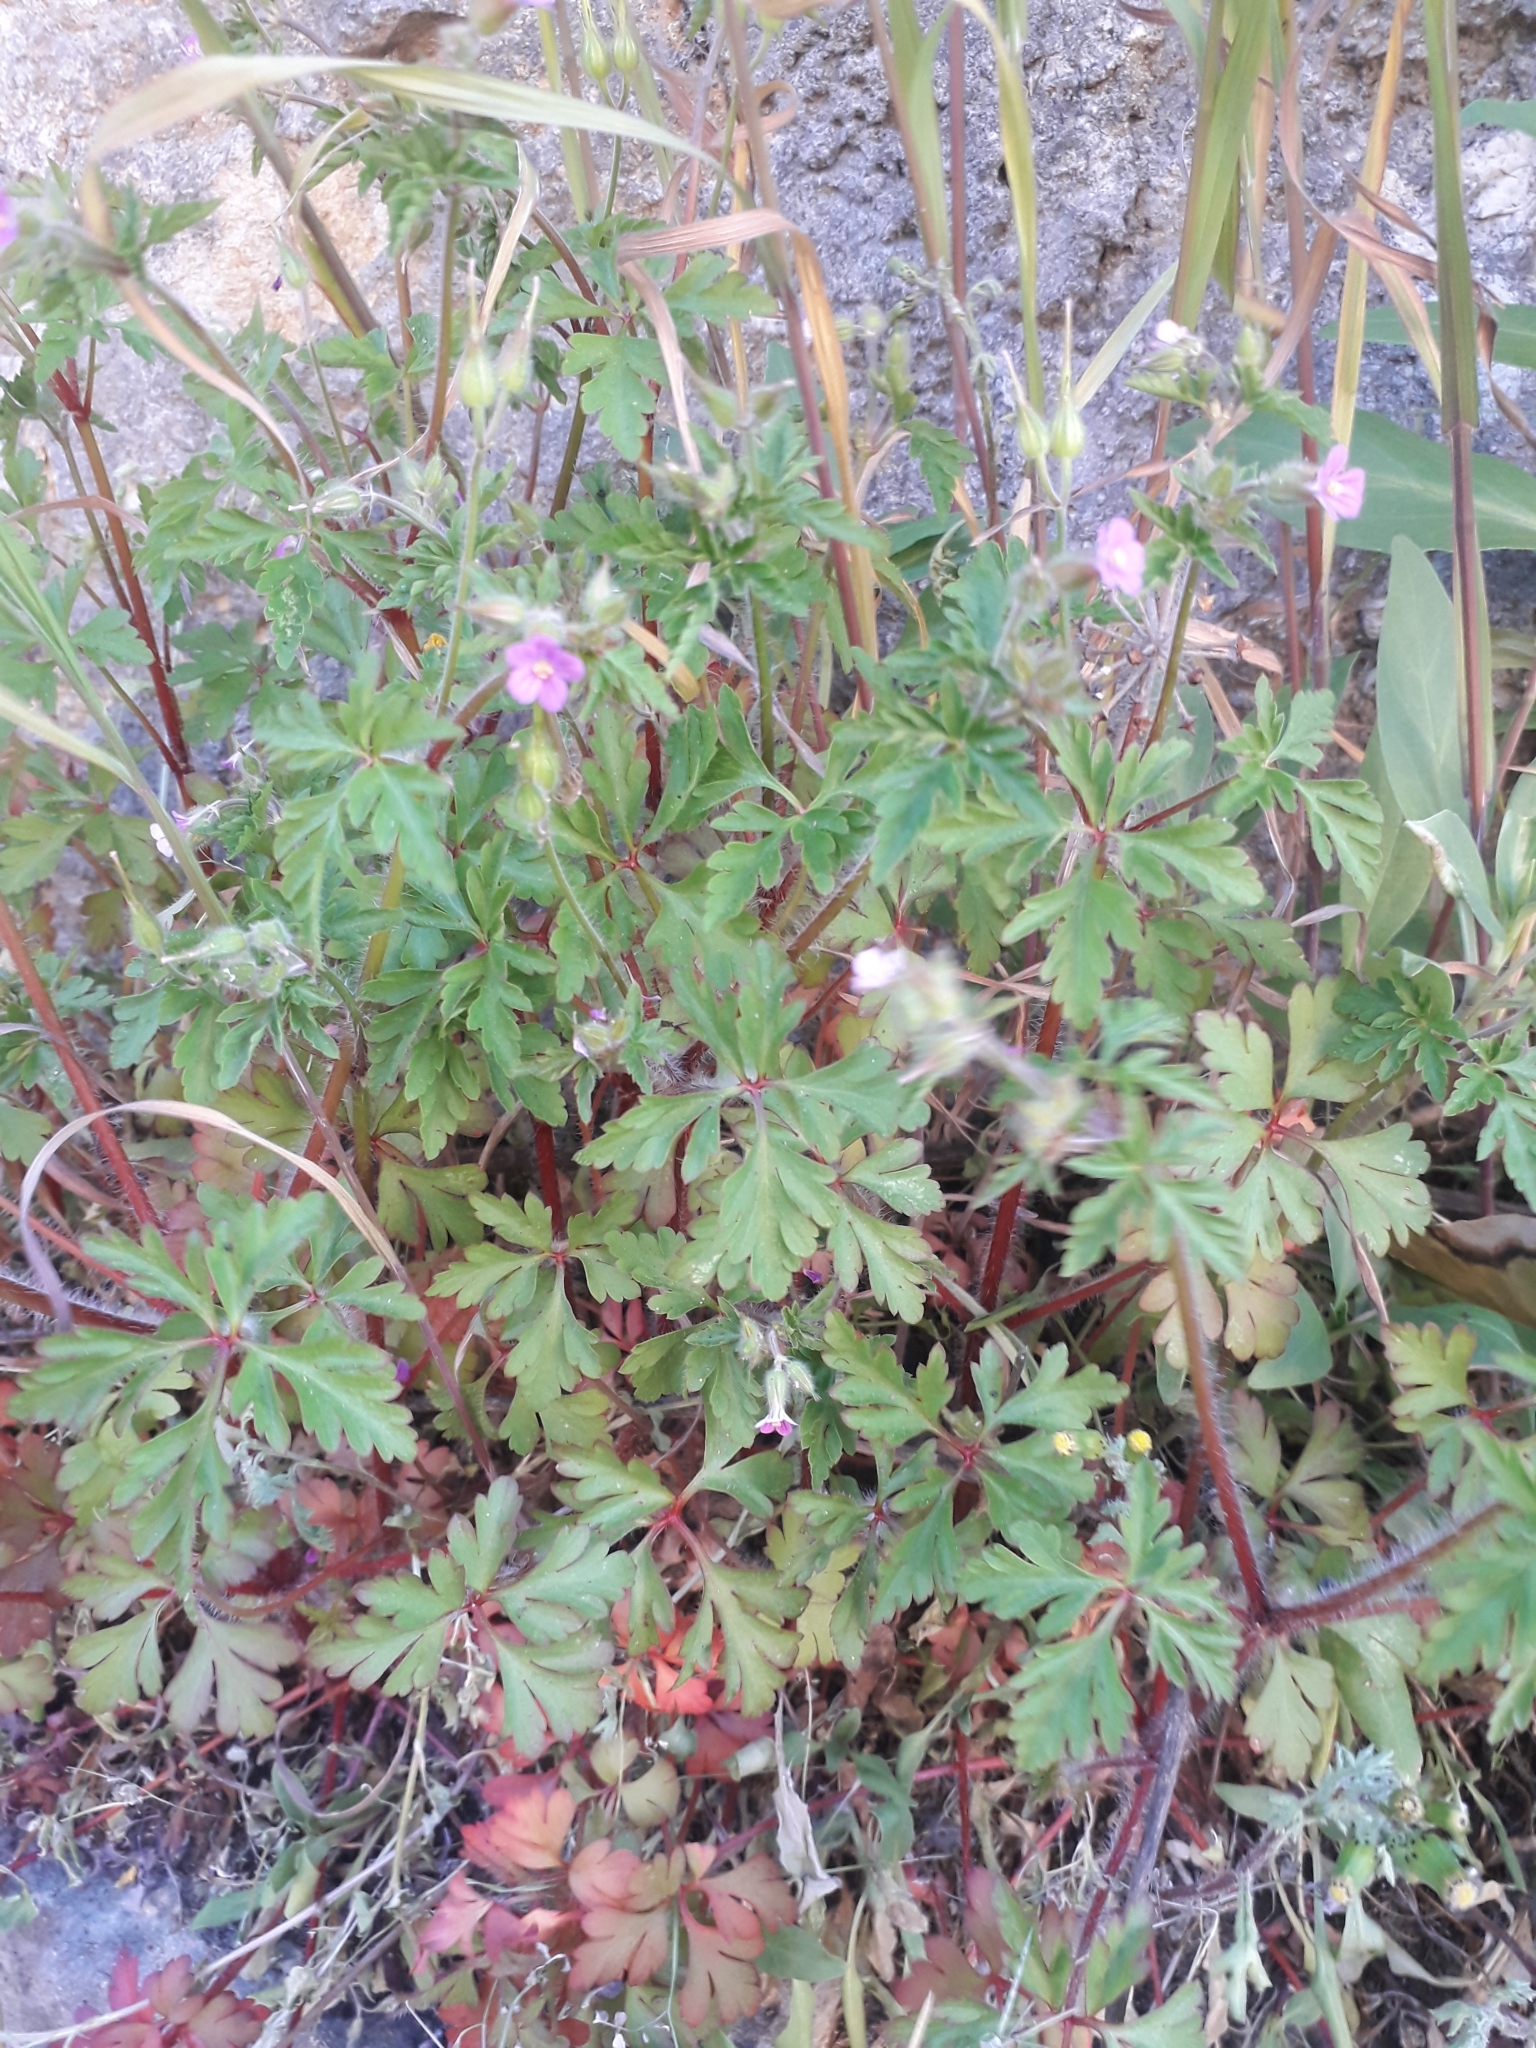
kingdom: Plantae
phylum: Tracheophyta
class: Magnoliopsida
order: Geraniales
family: Geraniaceae
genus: Geranium
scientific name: Geranium robertianum
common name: Herb-robert
